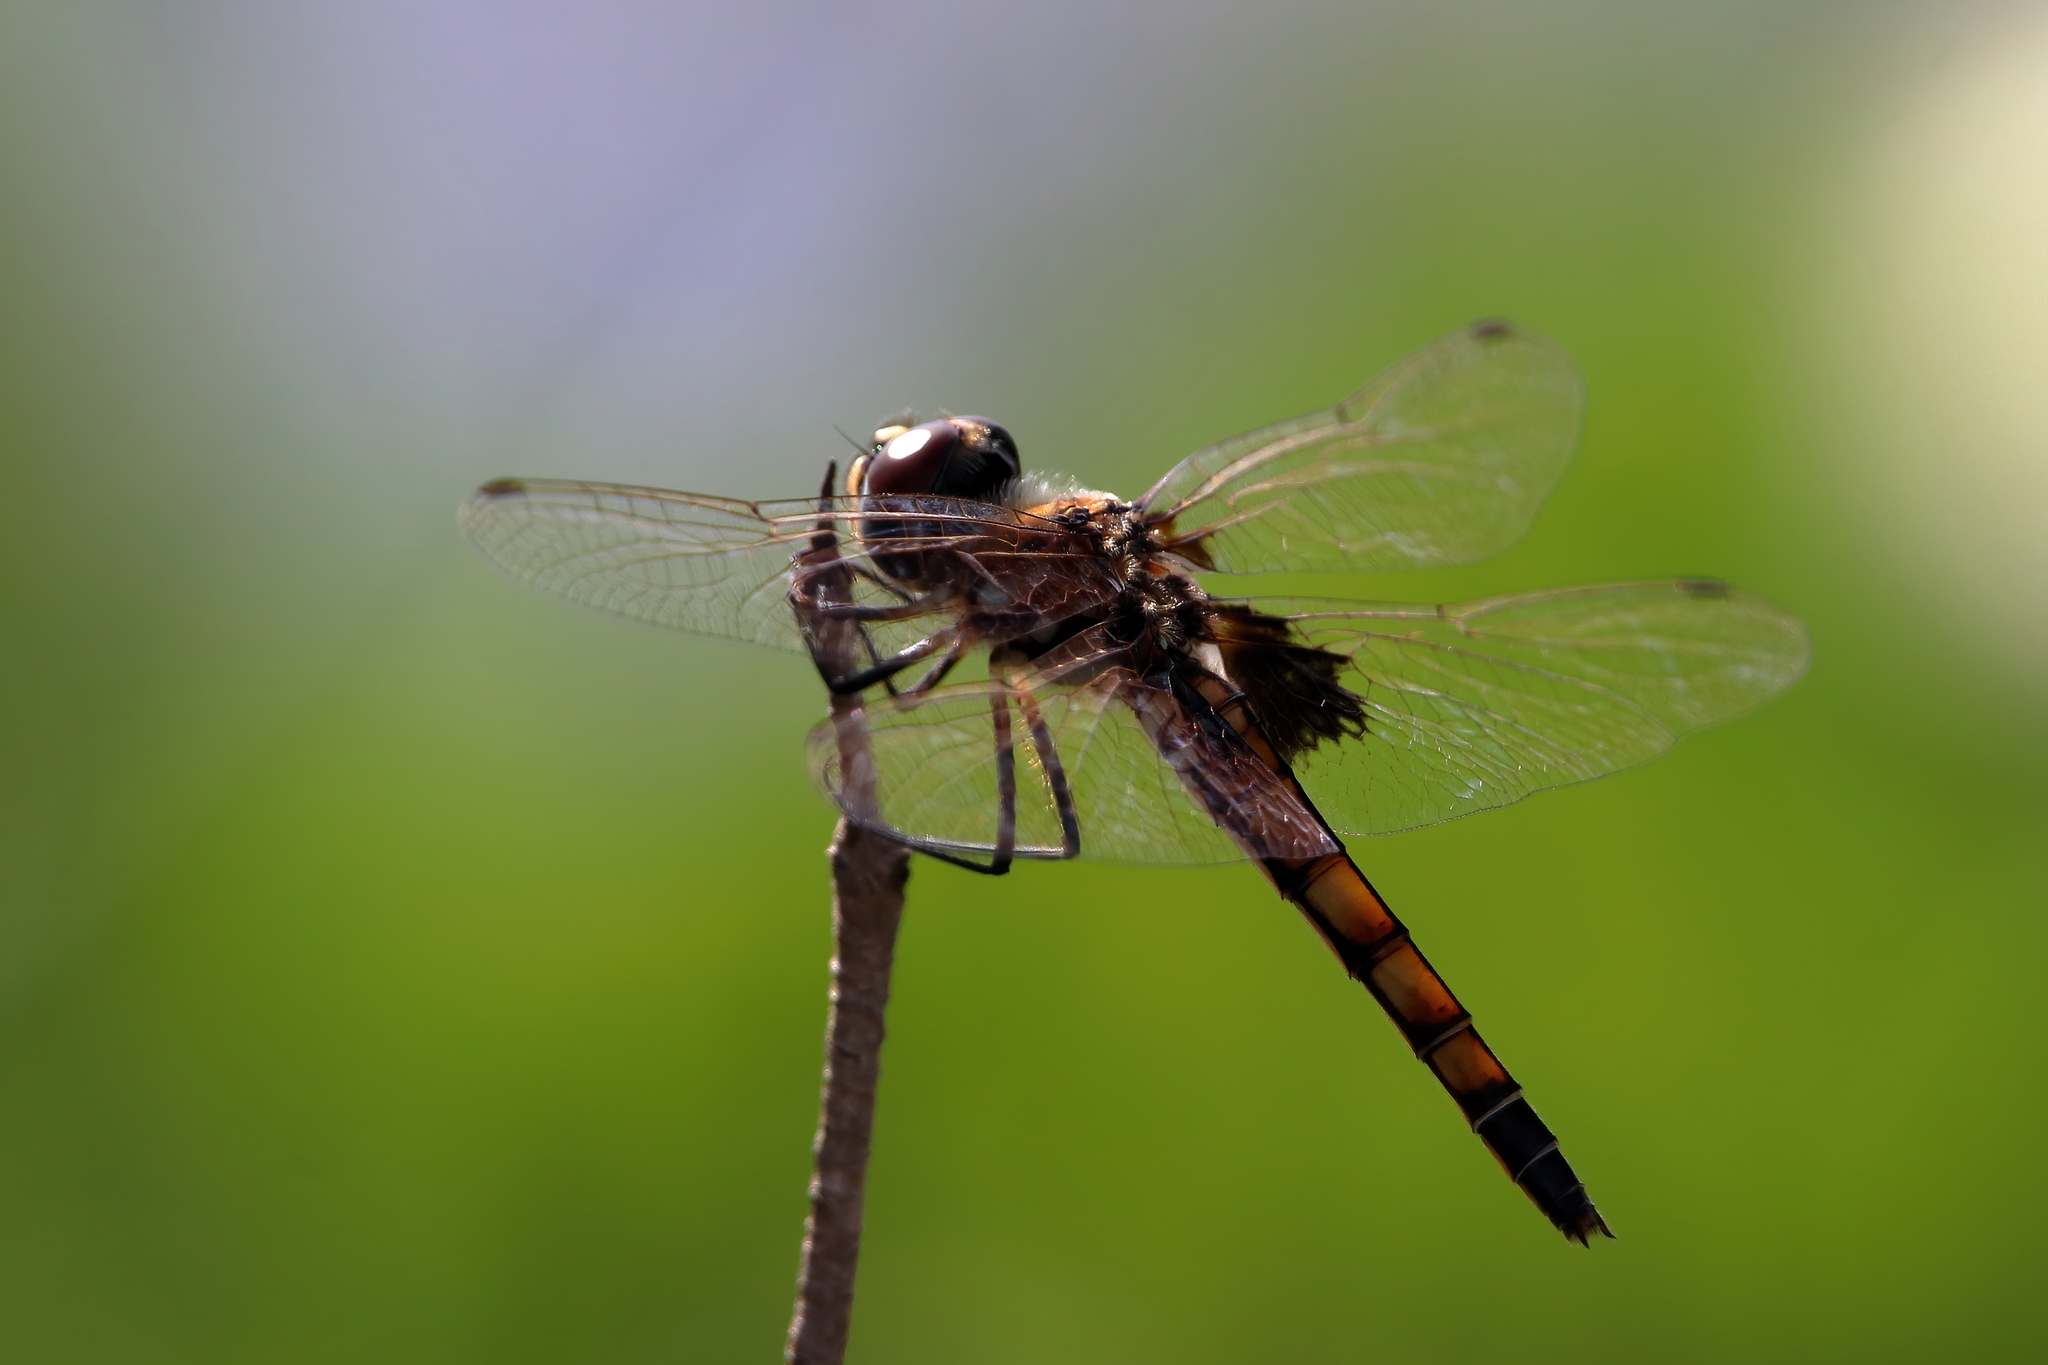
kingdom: Animalia
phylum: Arthropoda
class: Insecta
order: Odonata
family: Libellulidae
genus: Macrodiplax
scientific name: Macrodiplax balteata
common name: Marl pennant
